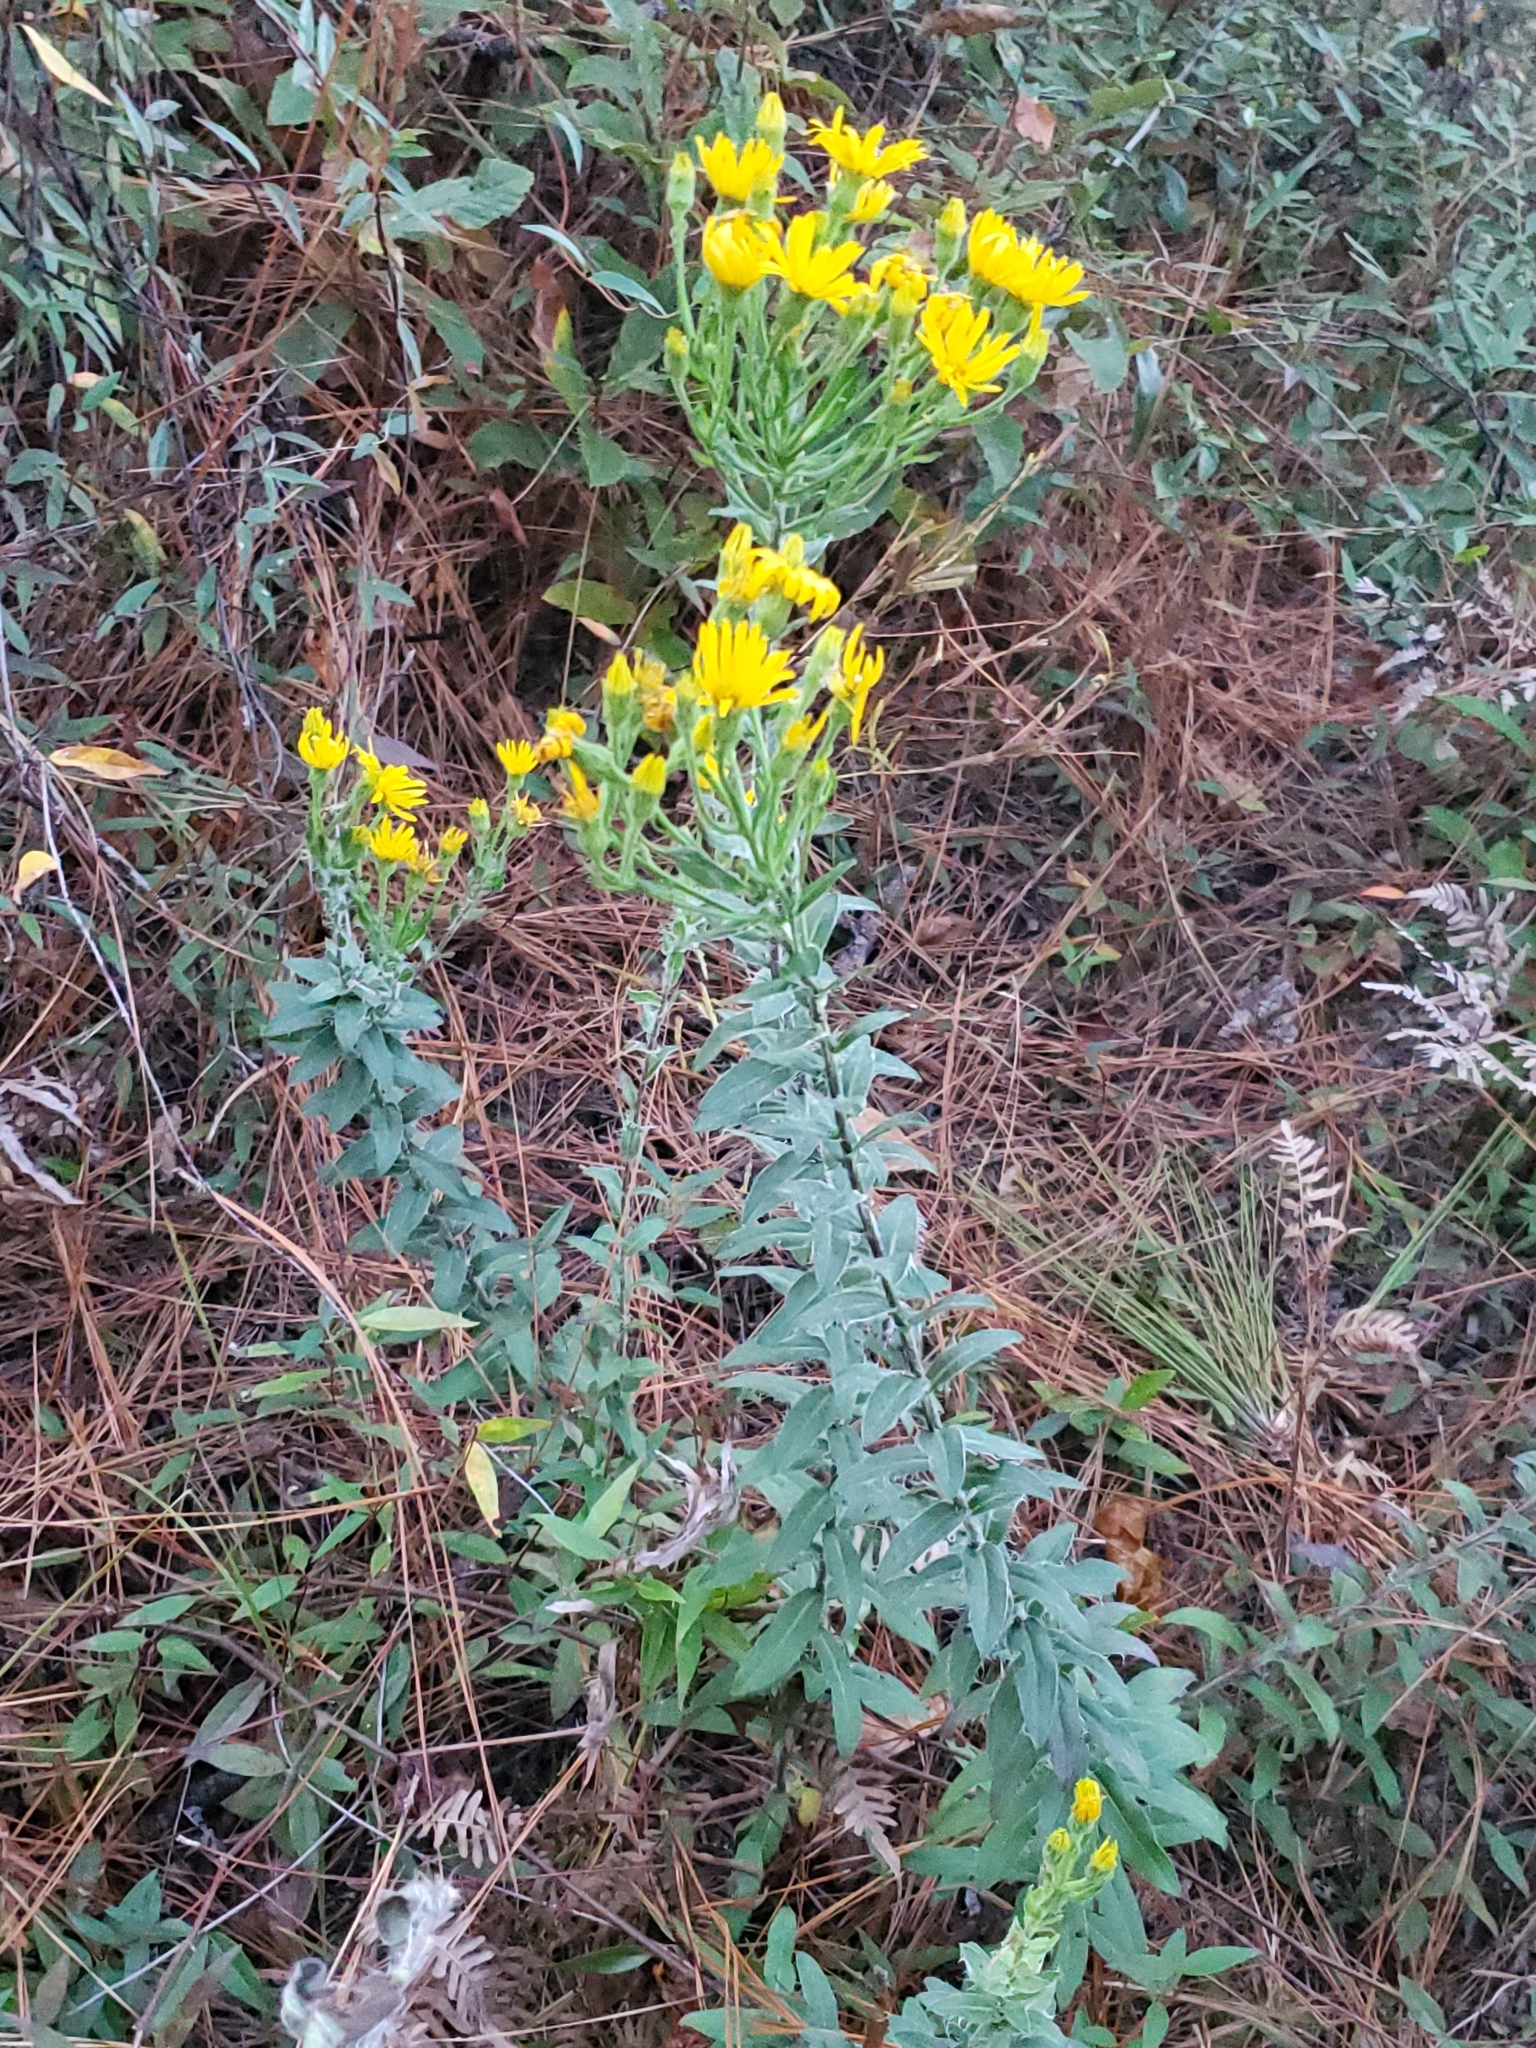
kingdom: Plantae
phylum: Tracheophyta
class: Magnoliopsida
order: Asterales
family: Asteraceae
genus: Chrysopsis
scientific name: Chrysopsis mariana
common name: Maryland golden-aster
